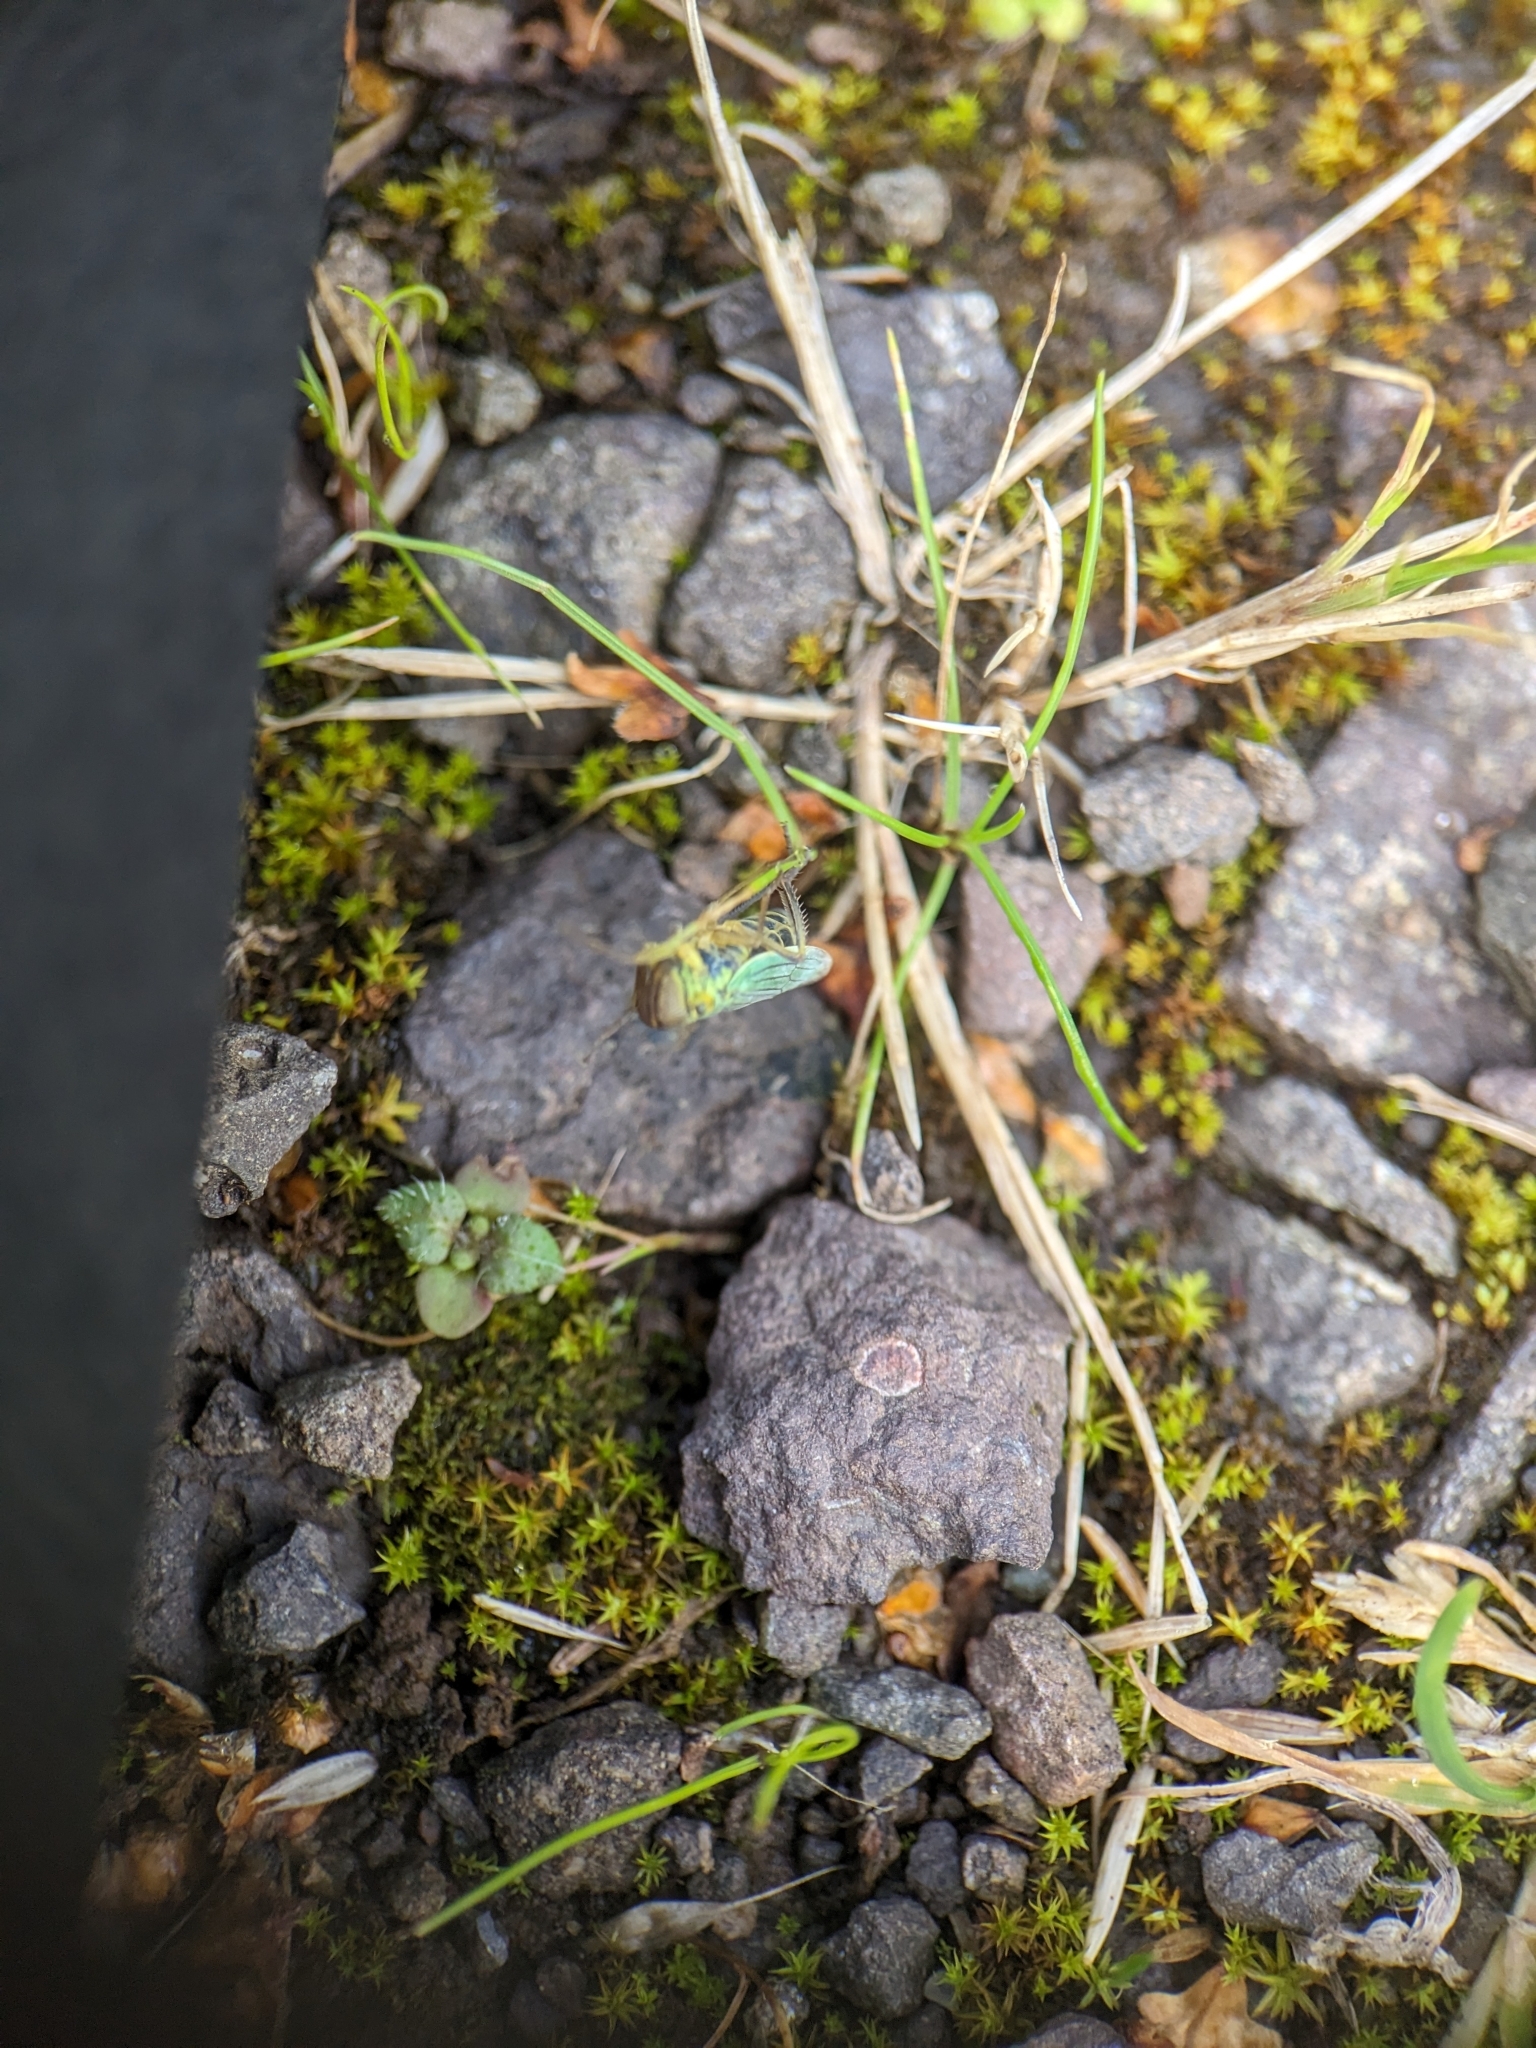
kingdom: Animalia
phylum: Arthropoda
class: Insecta
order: Hemiptera
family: Cicadellidae
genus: Cicadella
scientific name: Cicadella viridis
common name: Leafhopper
